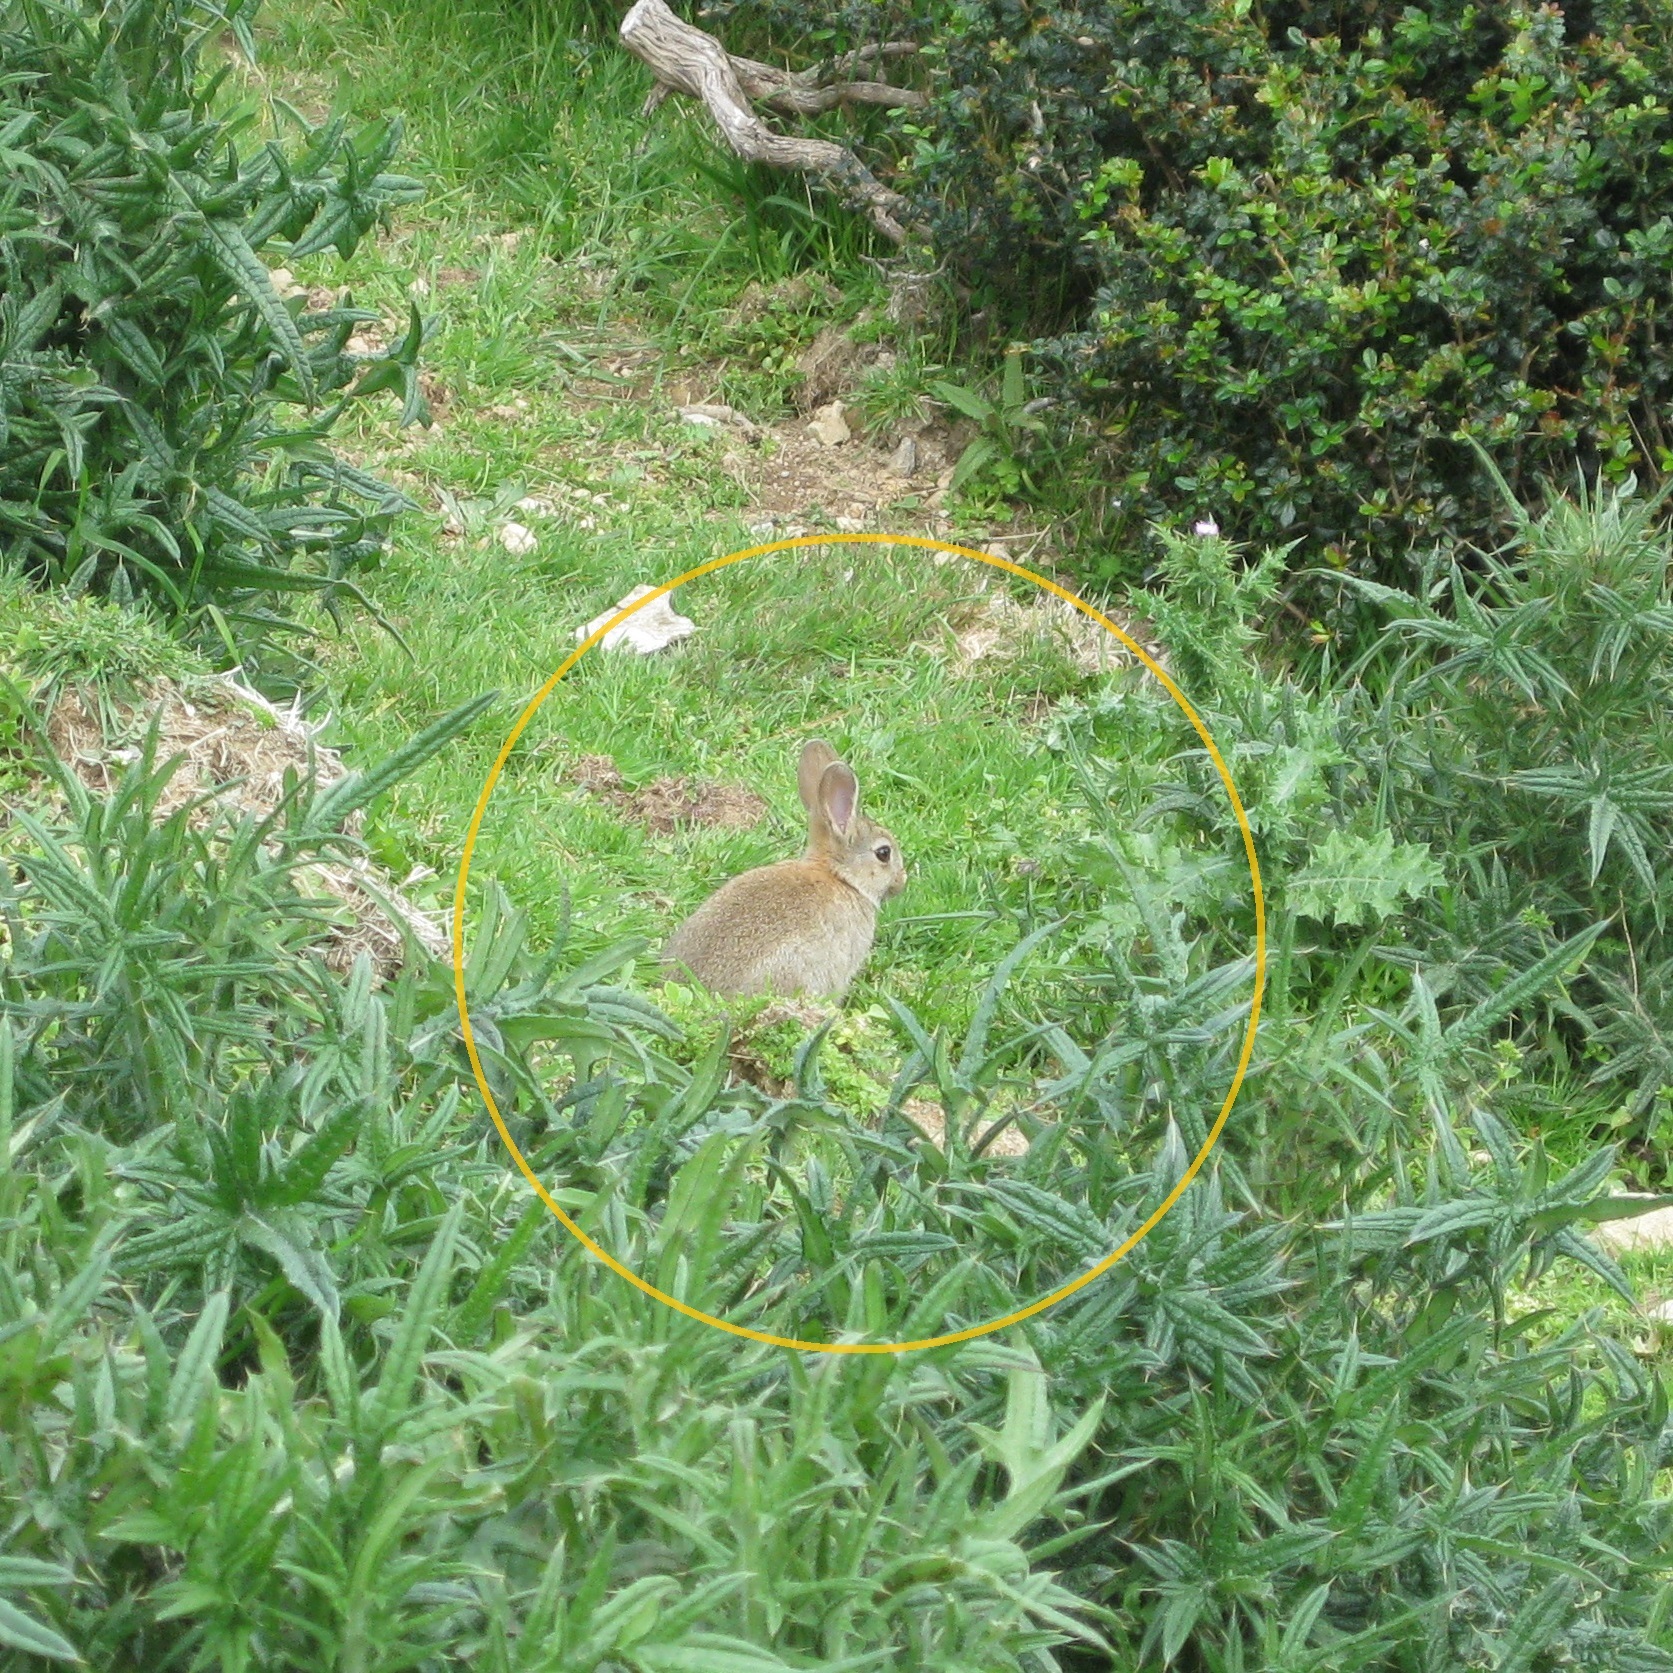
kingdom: Animalia
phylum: Chordata
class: Mammalia
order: Lagomorpha
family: Leporidae
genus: Oryctolagus
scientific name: Oryctolagus cuniculus
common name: European rabbit
